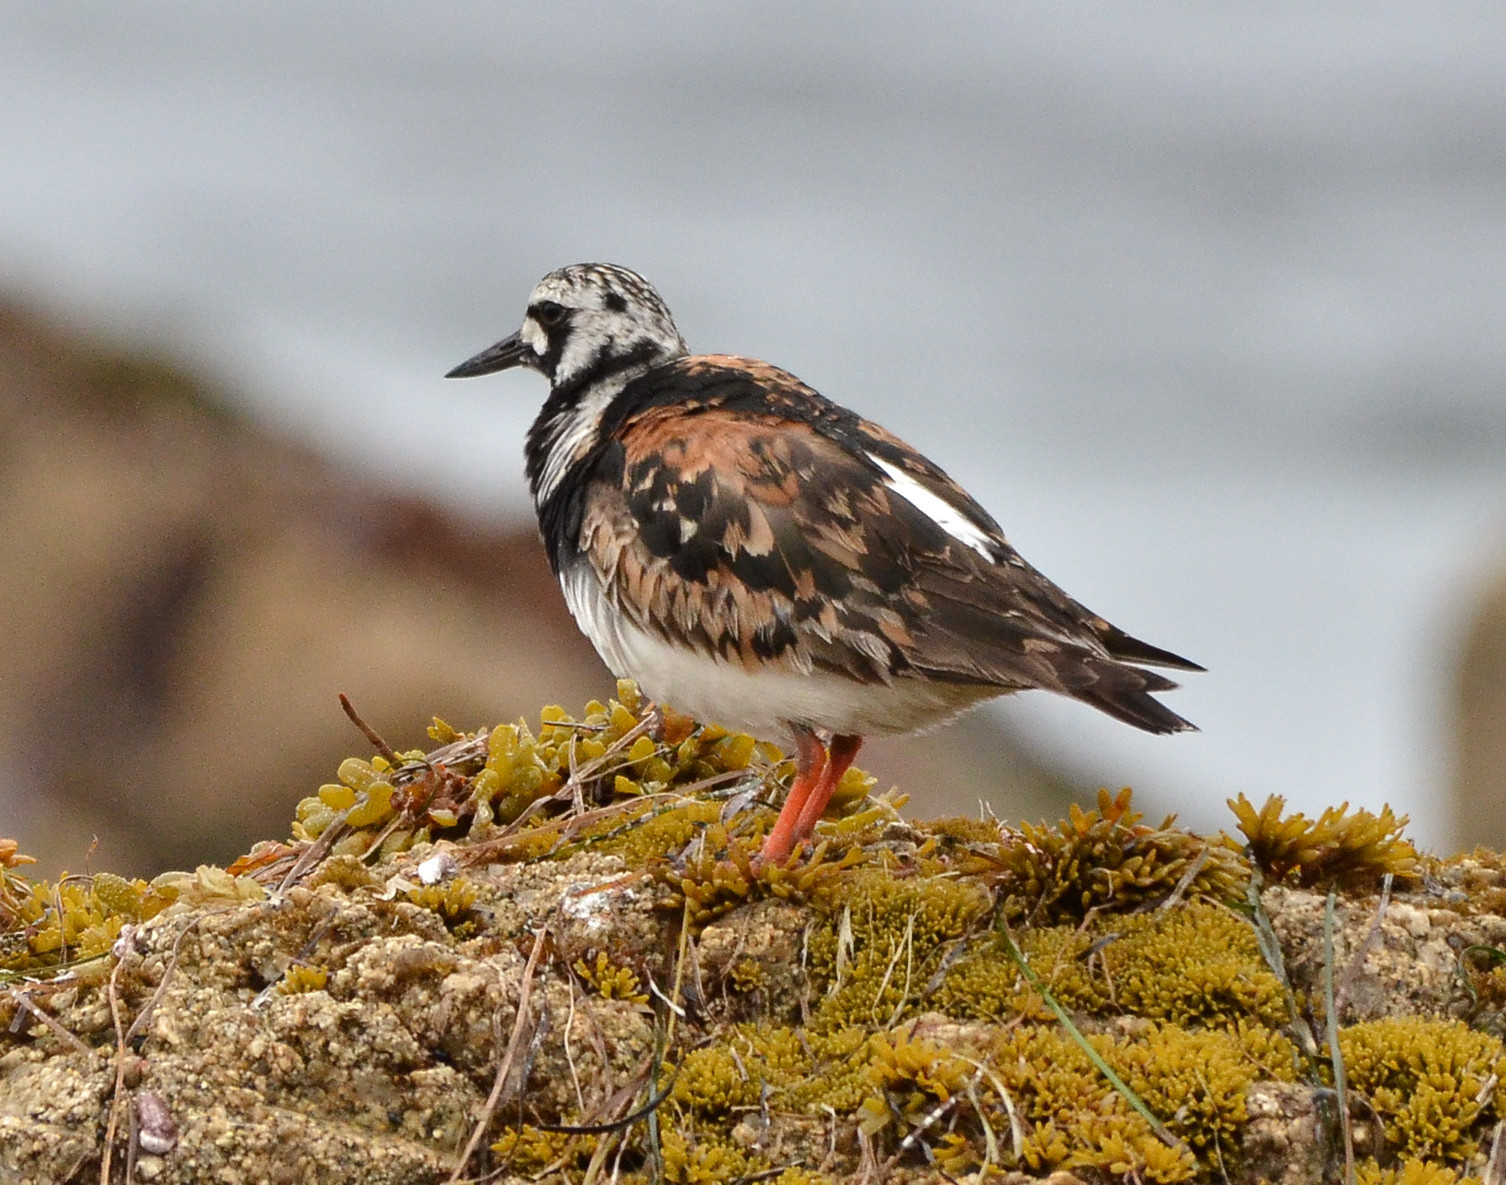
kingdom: Animalia
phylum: Chordata
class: Aves
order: Charadriiformes
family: Scolopacidae
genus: Arenaria
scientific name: Arenaria interpres
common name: Ruddy turnstone
